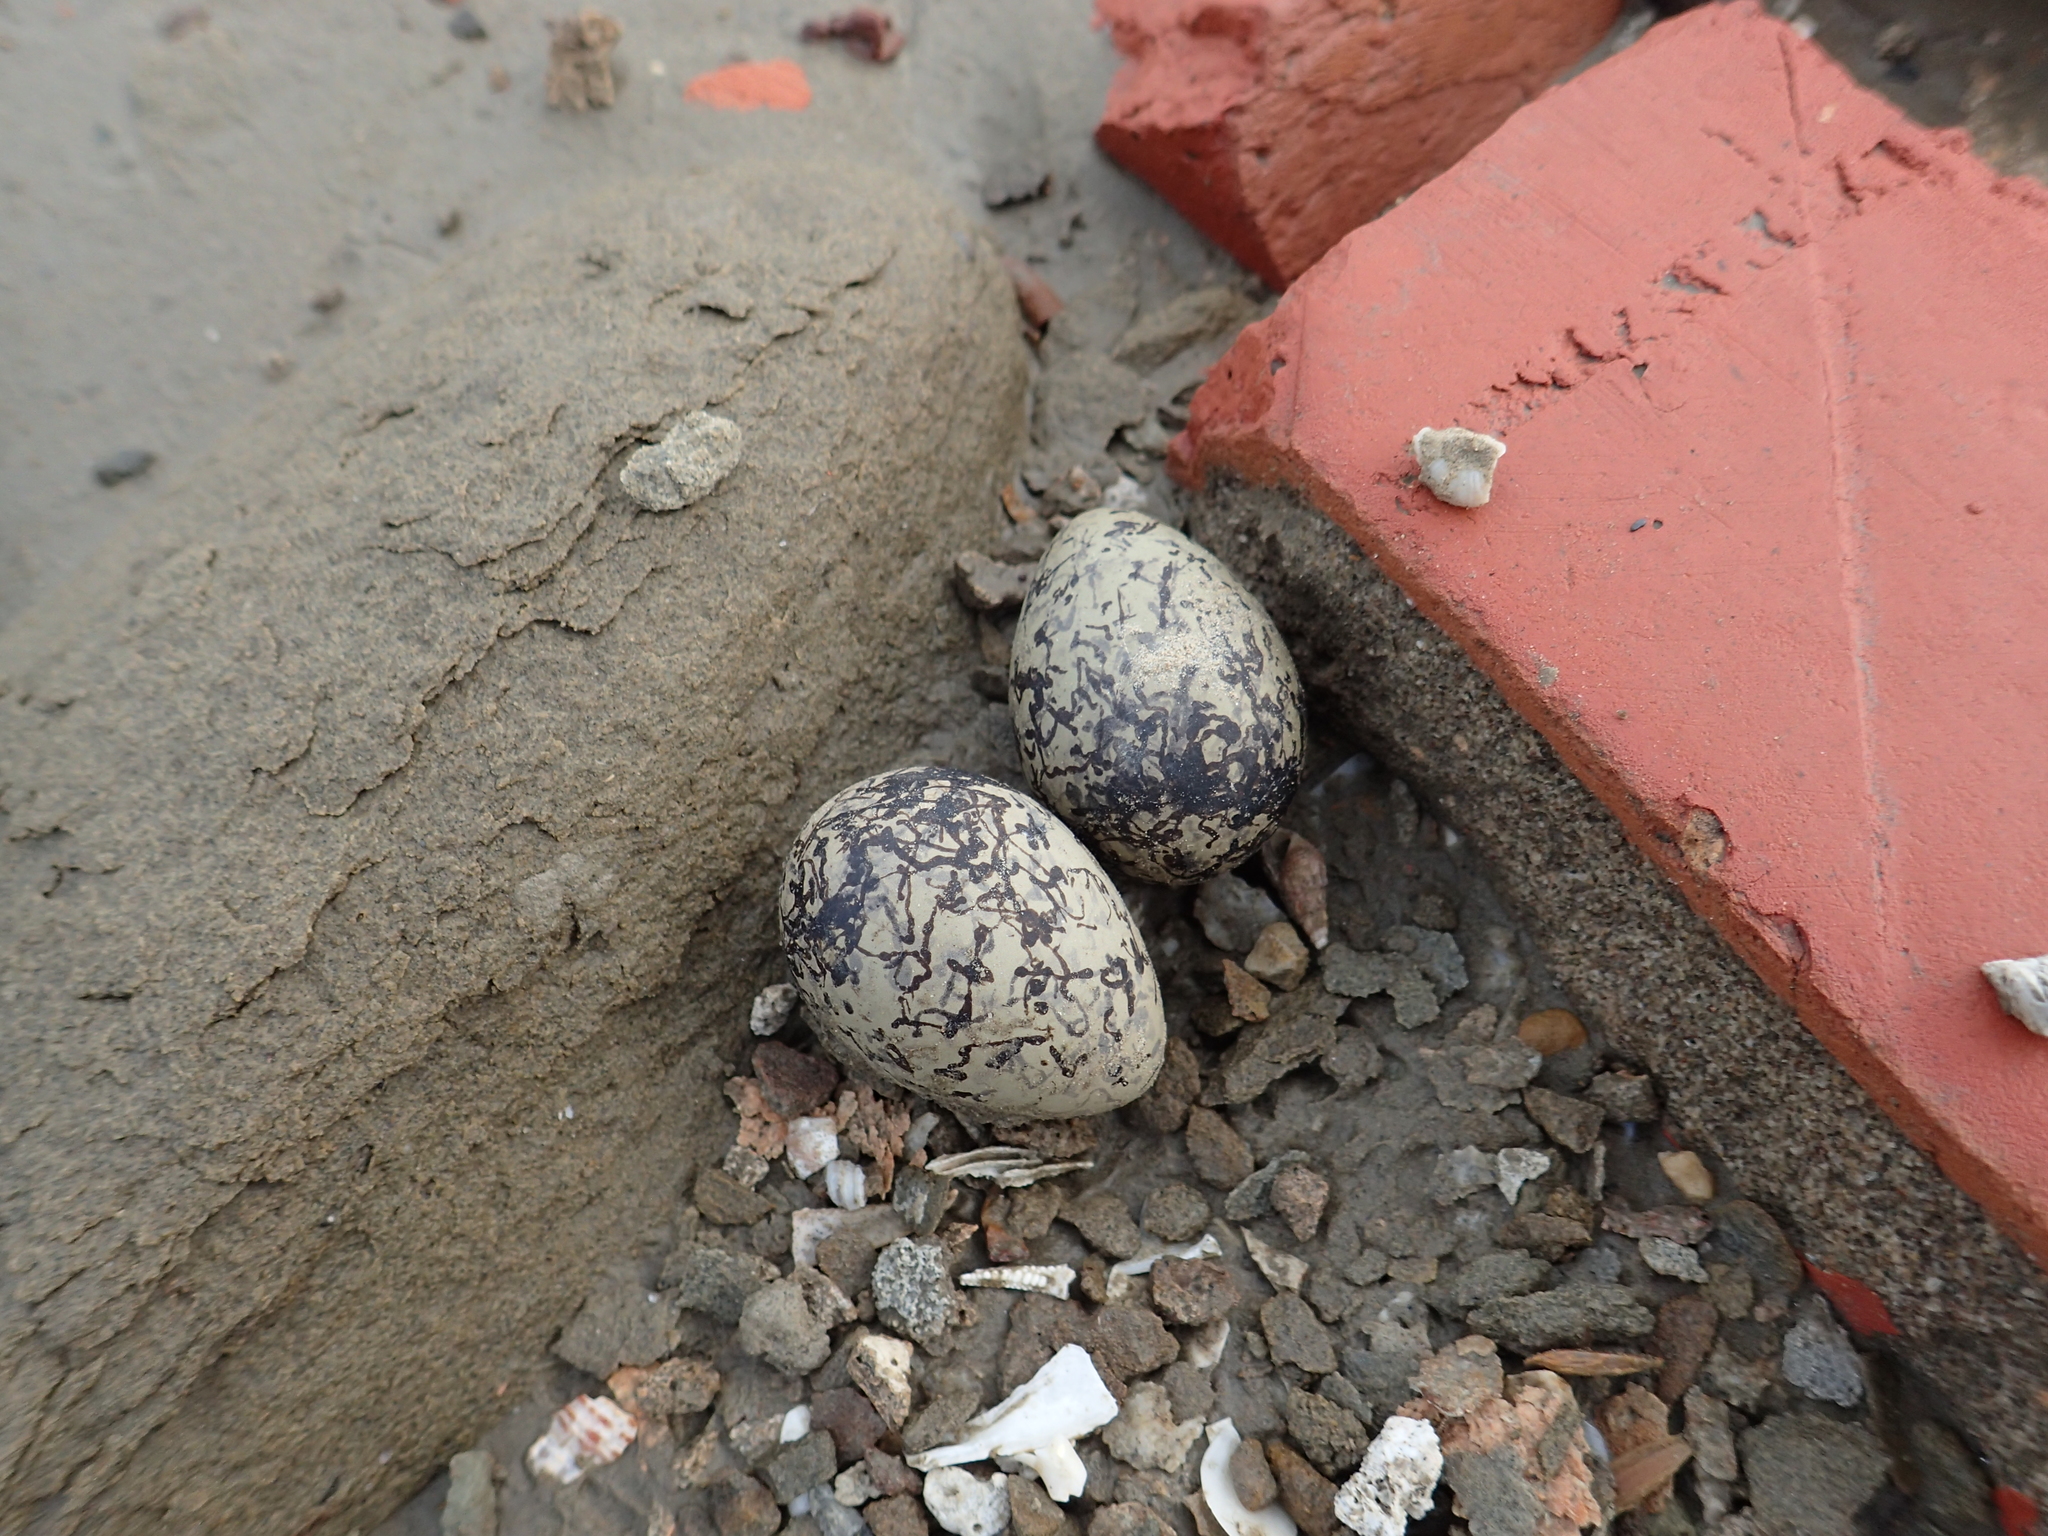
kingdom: Animalia
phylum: Chordata
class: Aves
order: Charadriiformes
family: Charadriidae
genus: Charadrius
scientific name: Charadrius alexandrinus
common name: Kentish plover
